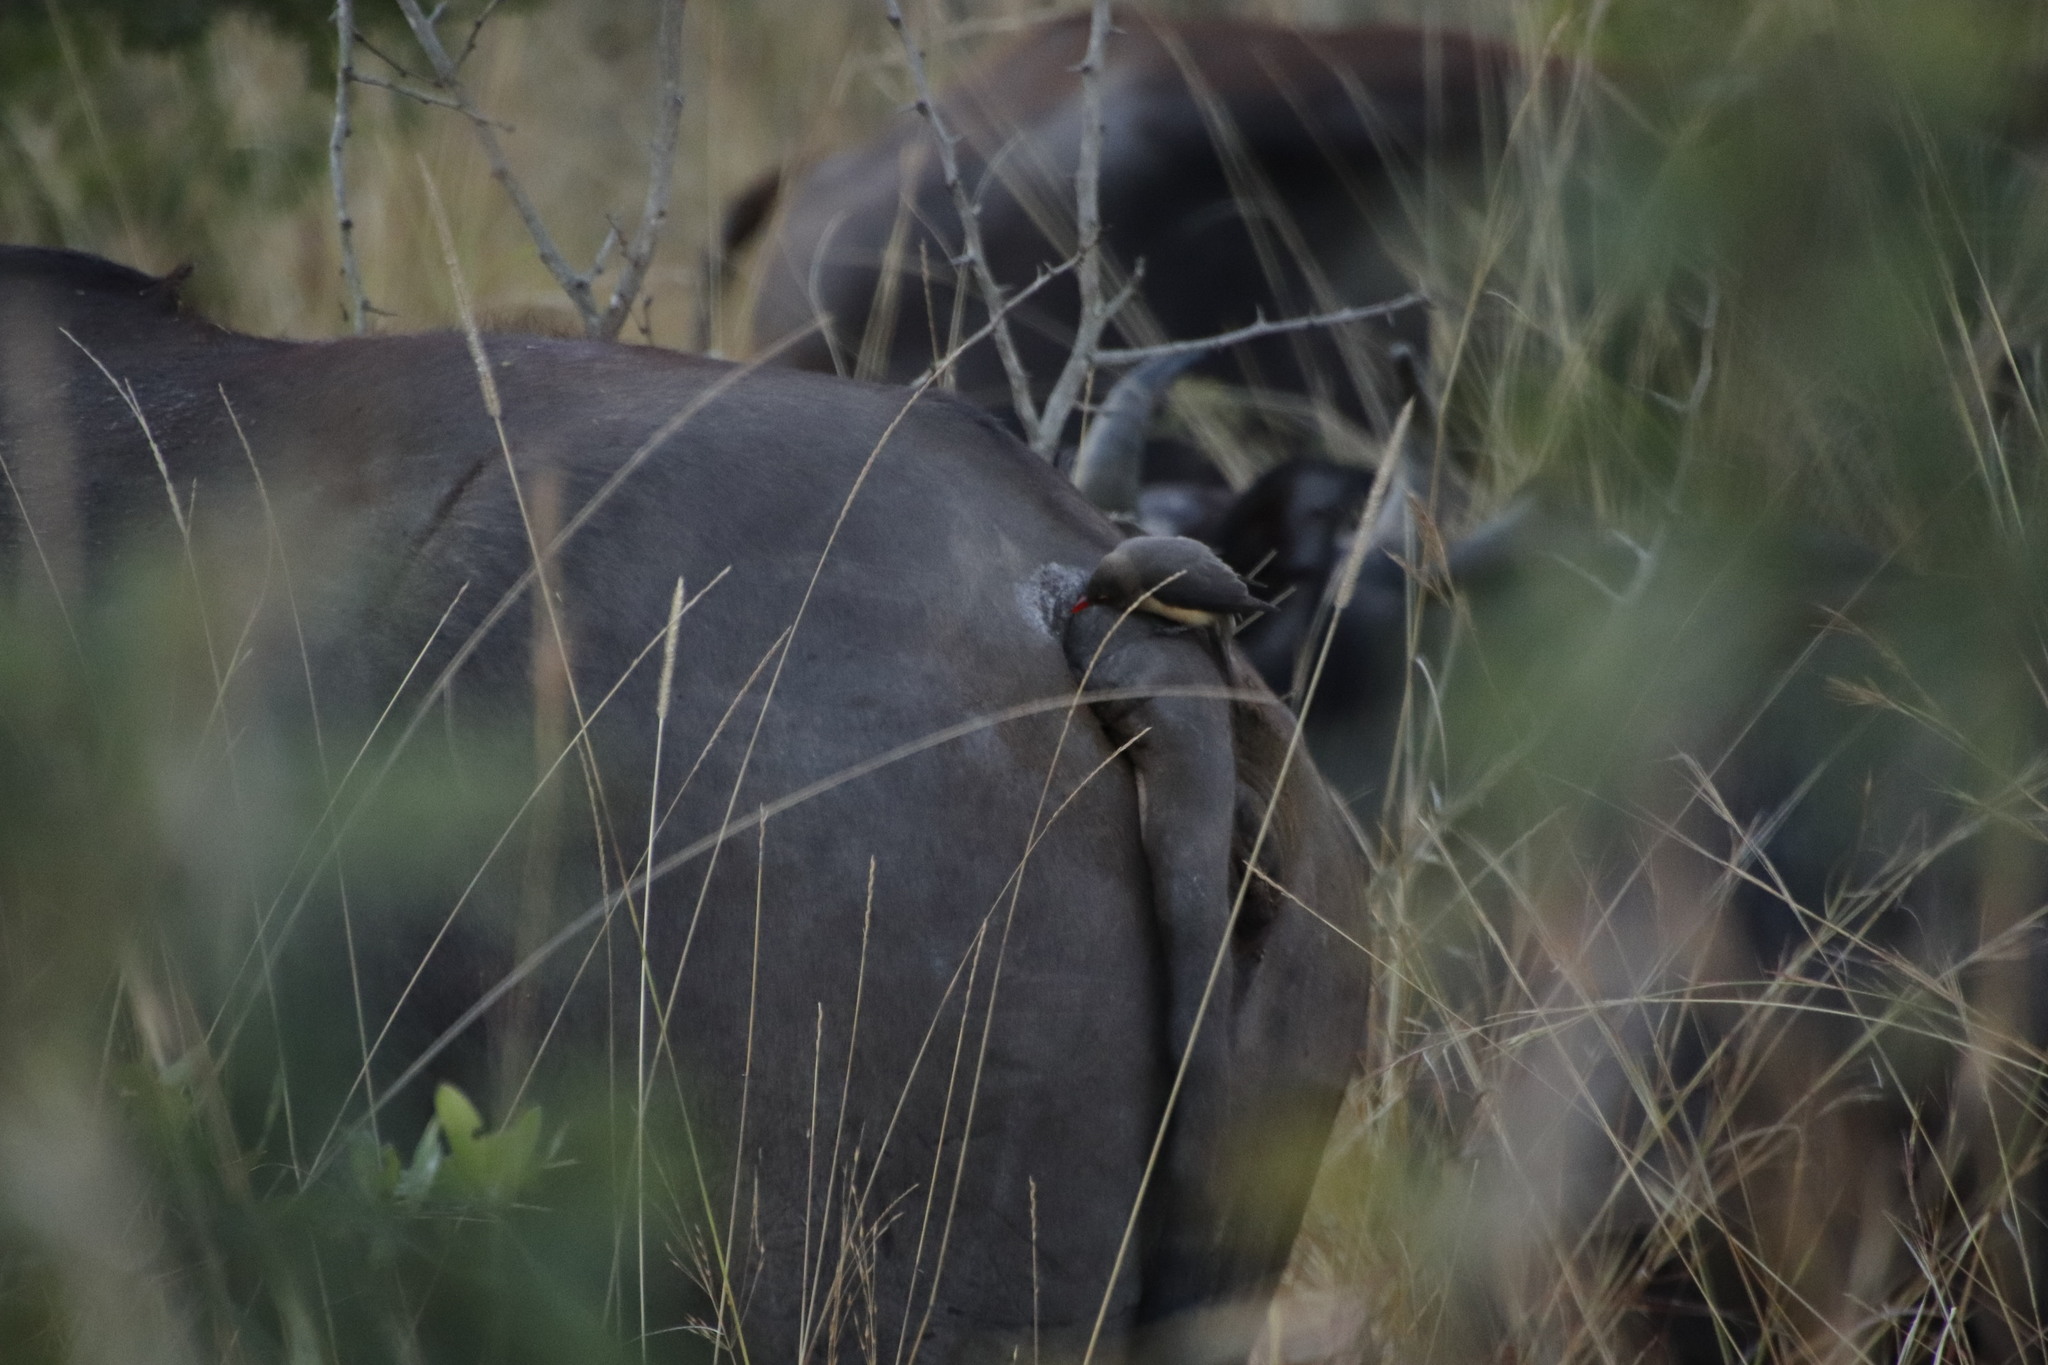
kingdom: Animalia
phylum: Chordata
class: Aves
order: Passeriformes
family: Buphagidae
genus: Buphagus
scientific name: Buphagus erythrorhynchus
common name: Red-billed oxpecker
